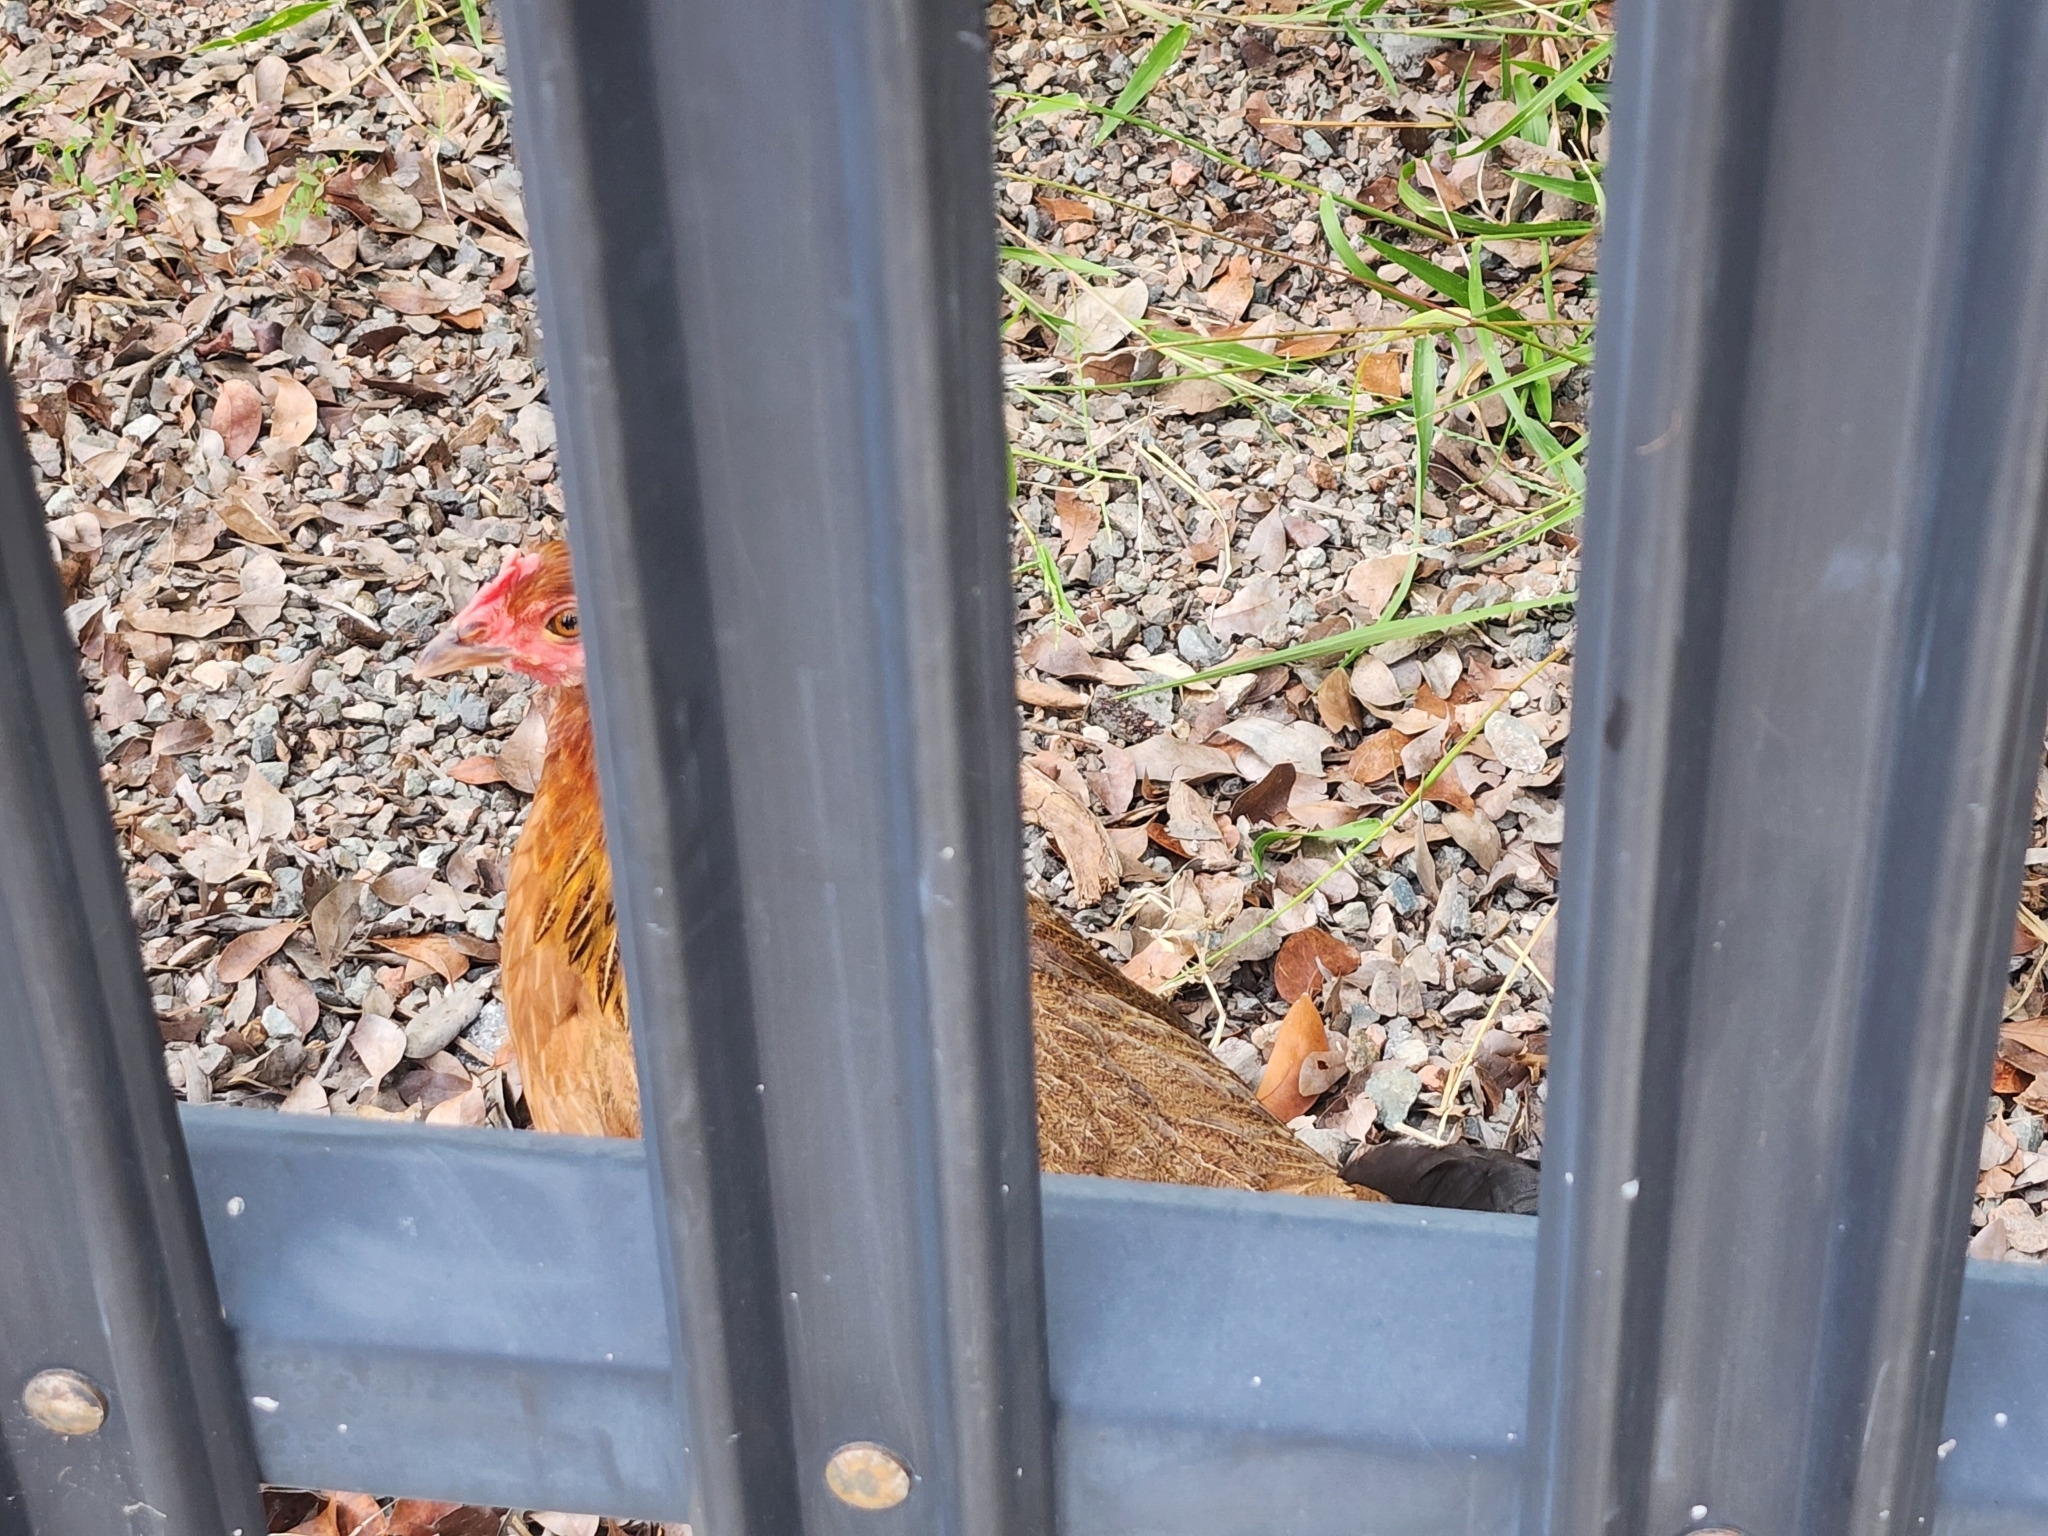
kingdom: Animalia
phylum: Chordata
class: Aves
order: Galliformes
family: Phasianidae
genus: Gallus
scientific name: Gallus gallus
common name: Red junglefowl
